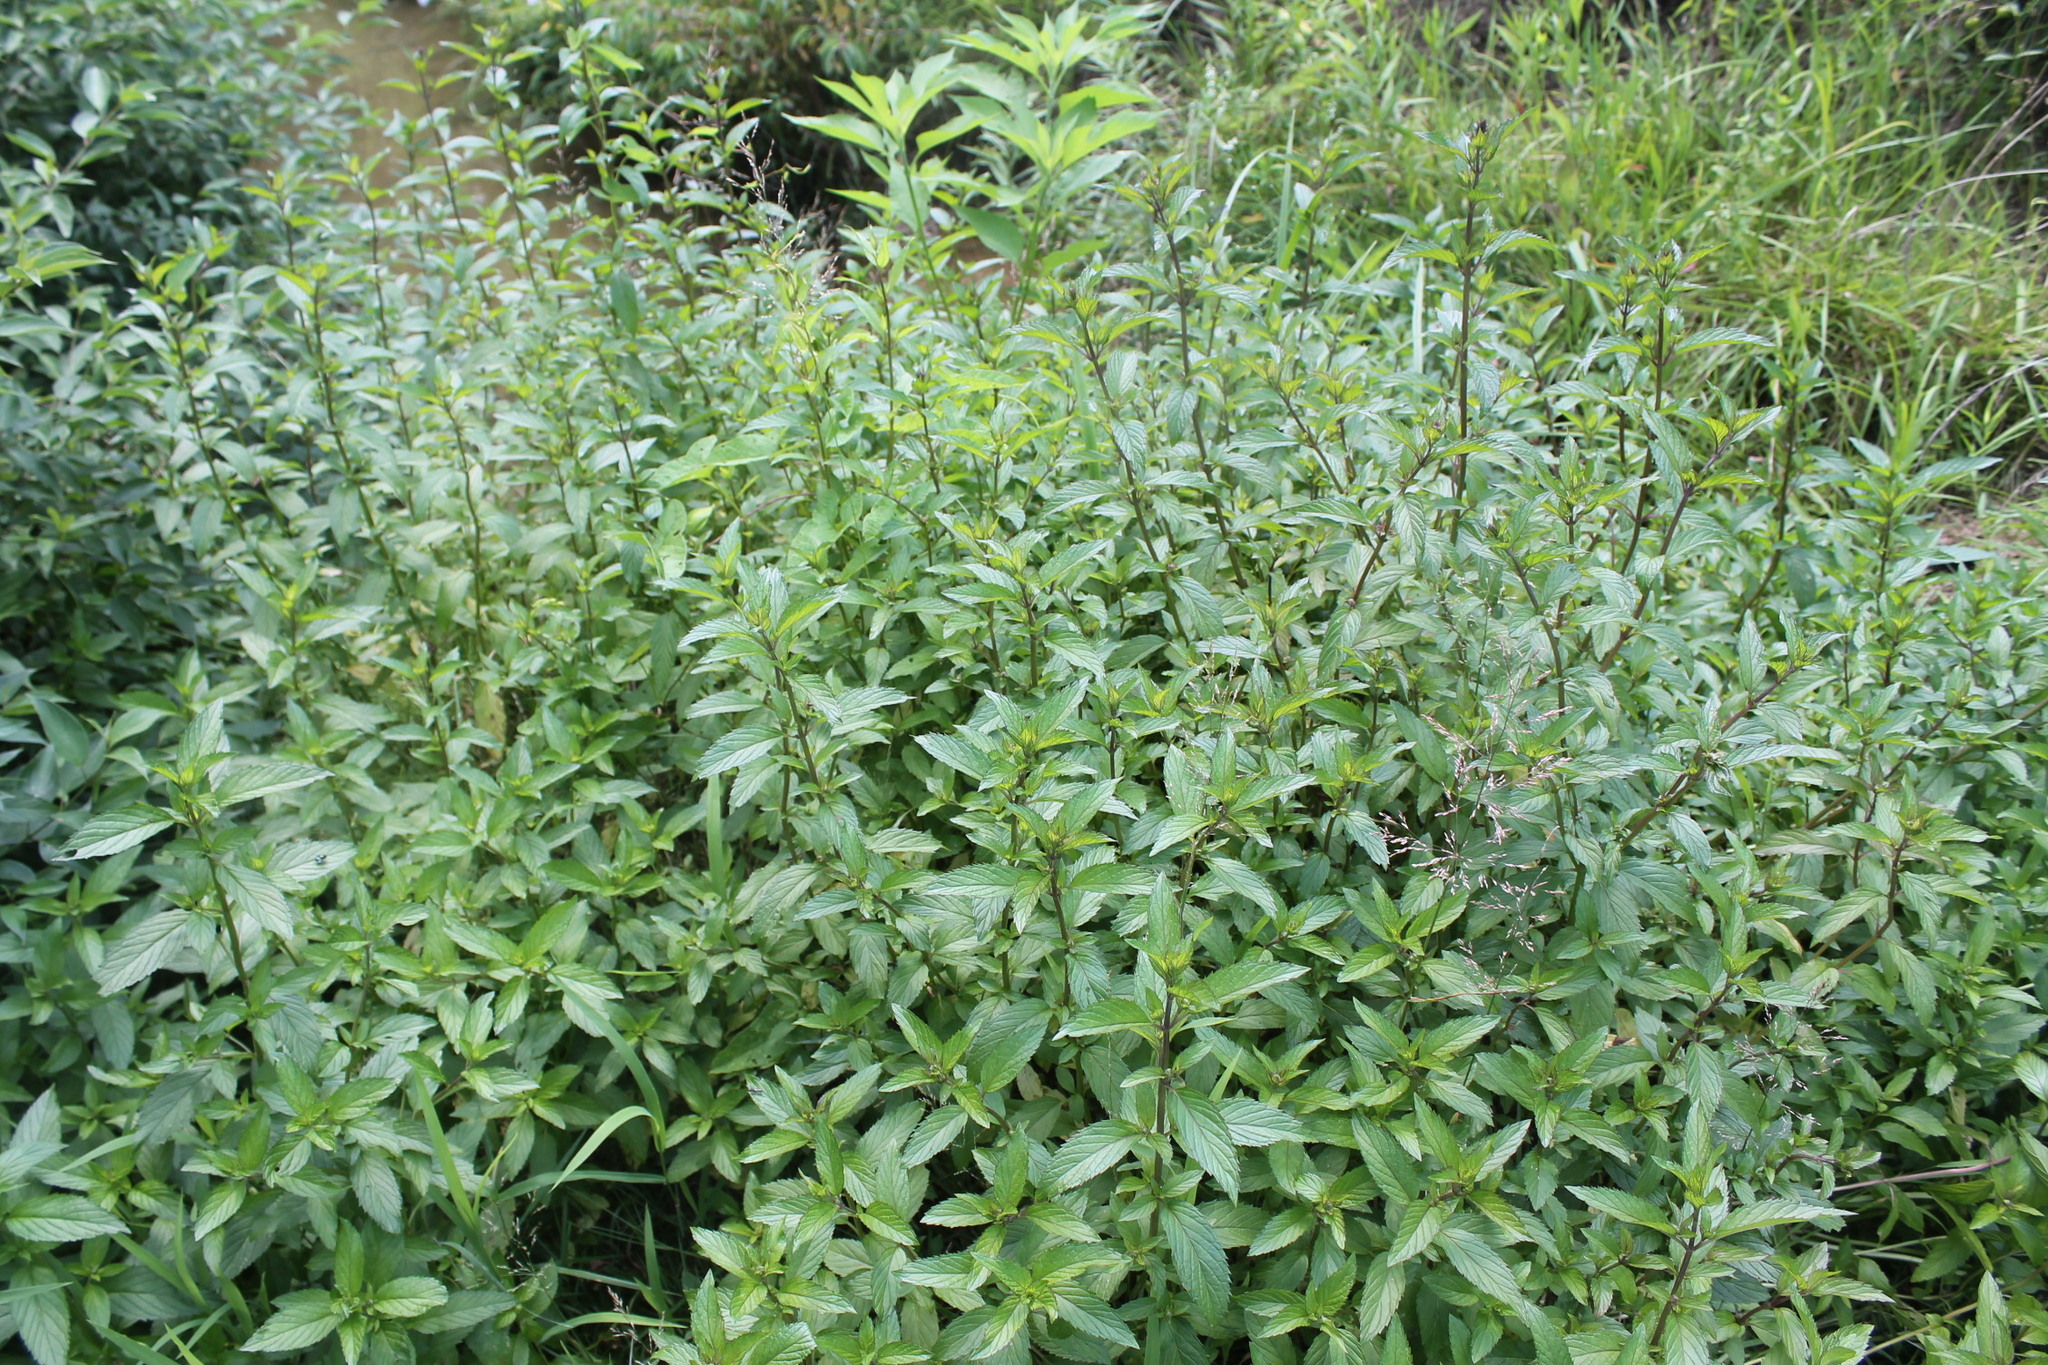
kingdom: Plantae
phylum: Tracheophyta
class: Magnoliopsida
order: Lamiales
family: Lamiaceae
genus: Mentha
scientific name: Mentha spicata
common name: Spearmint
